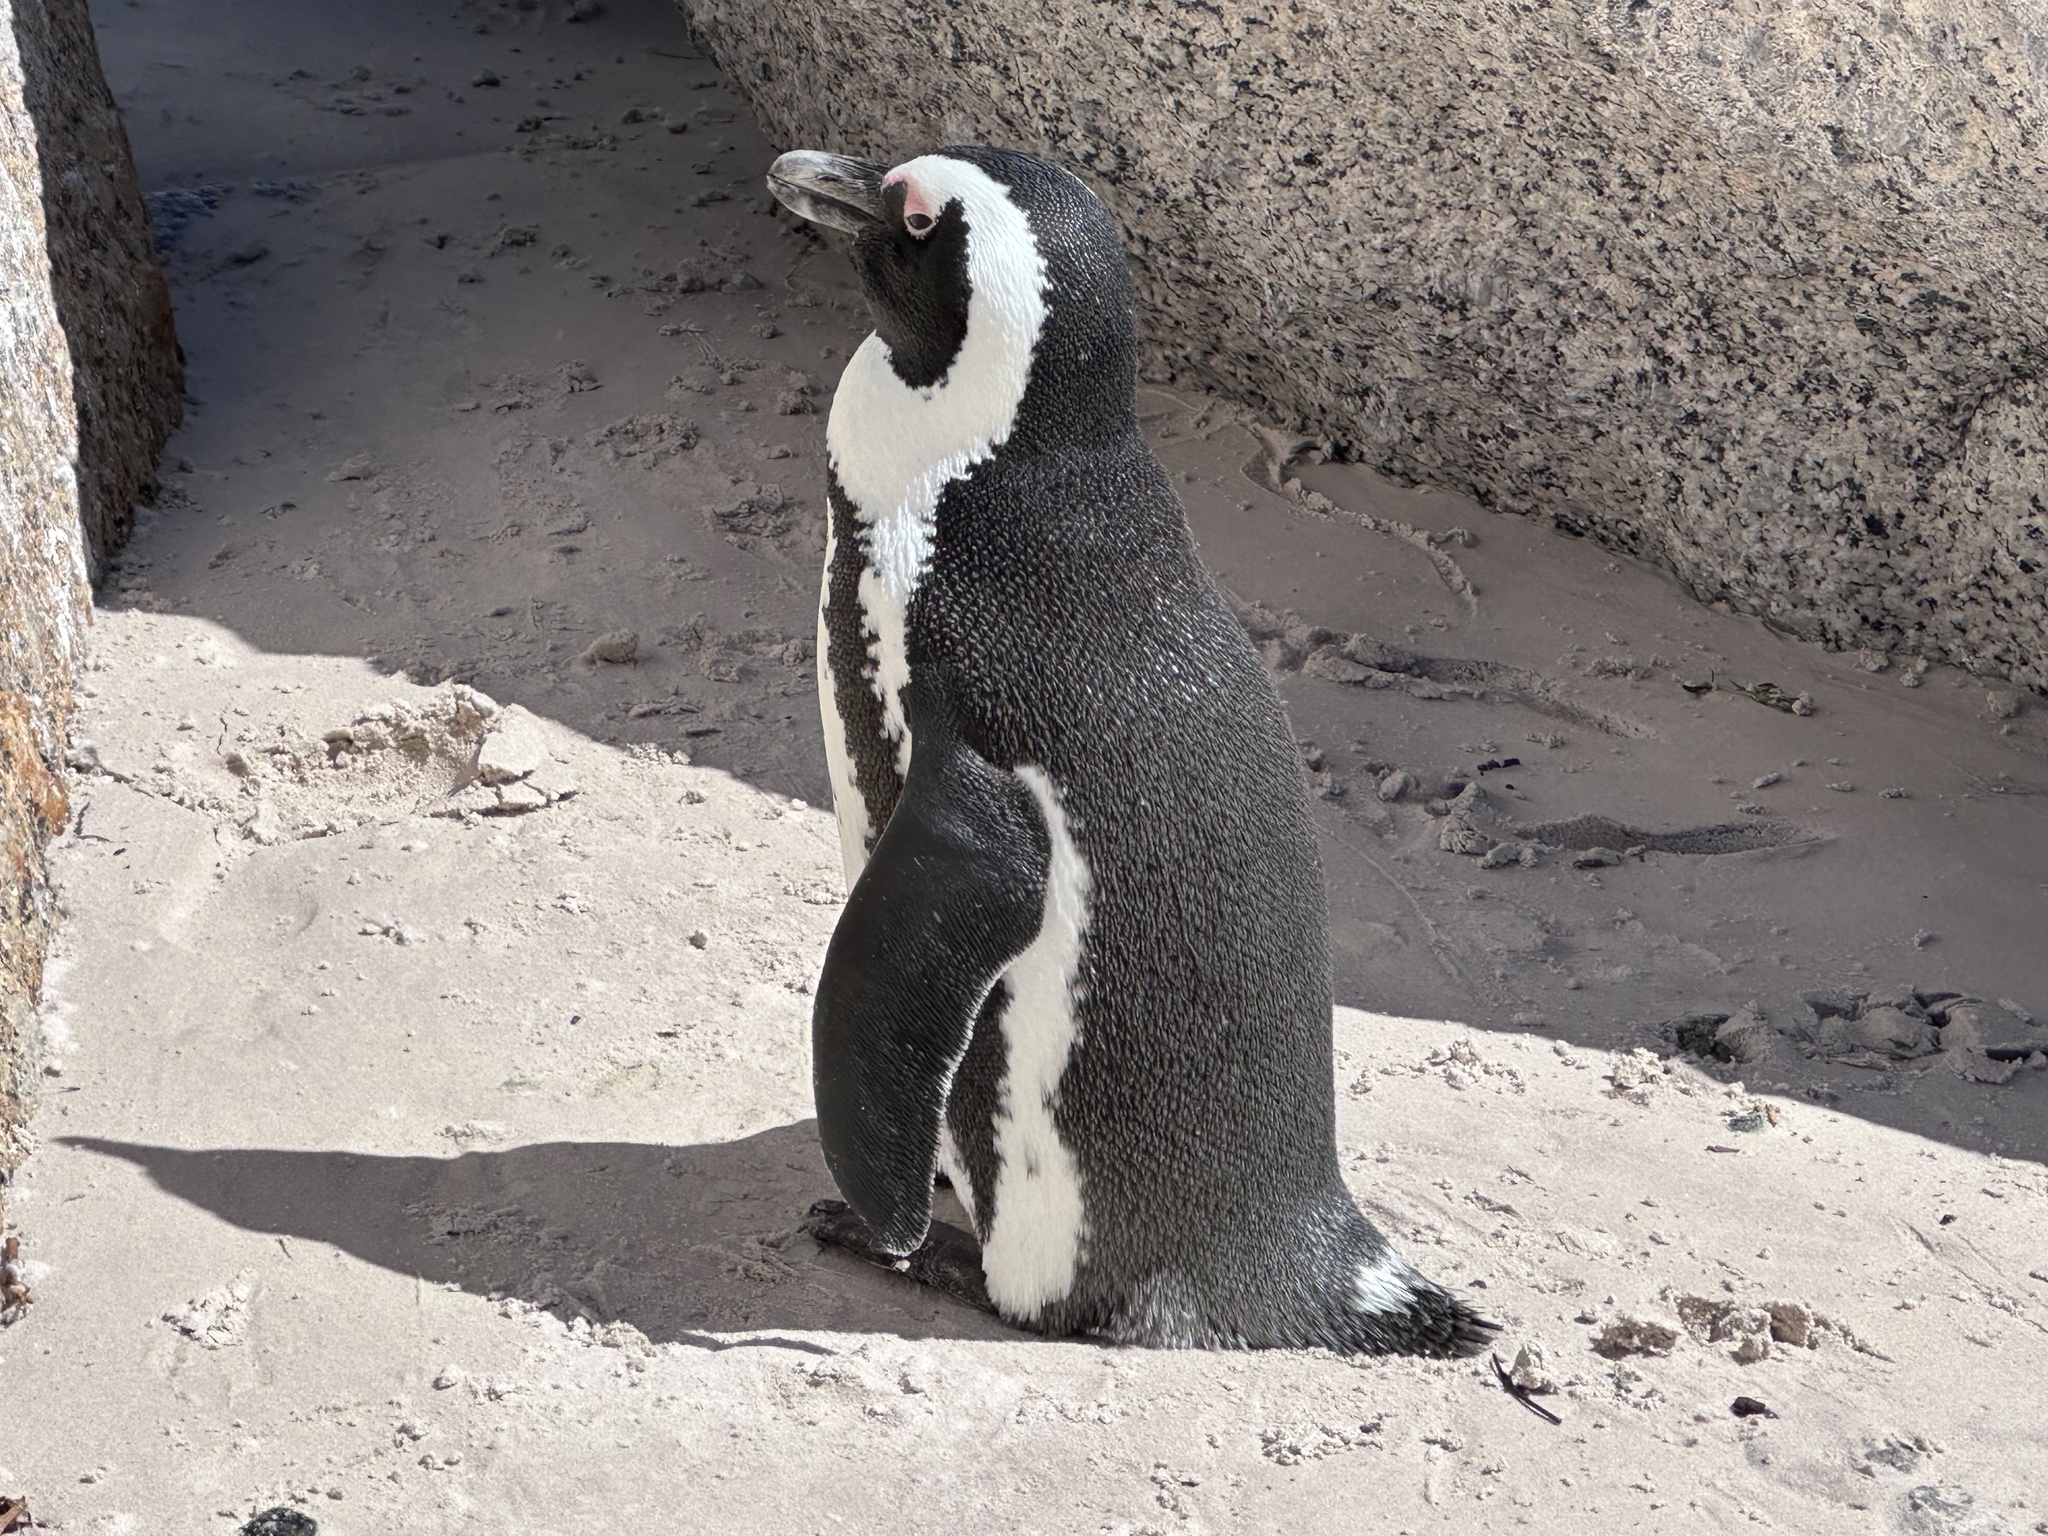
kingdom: Animalia
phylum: Chordata
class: Aves
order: Sphenisciformes
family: Spheniscidae
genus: Spheniscus
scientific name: Spheniscus demersus
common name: African penguin
